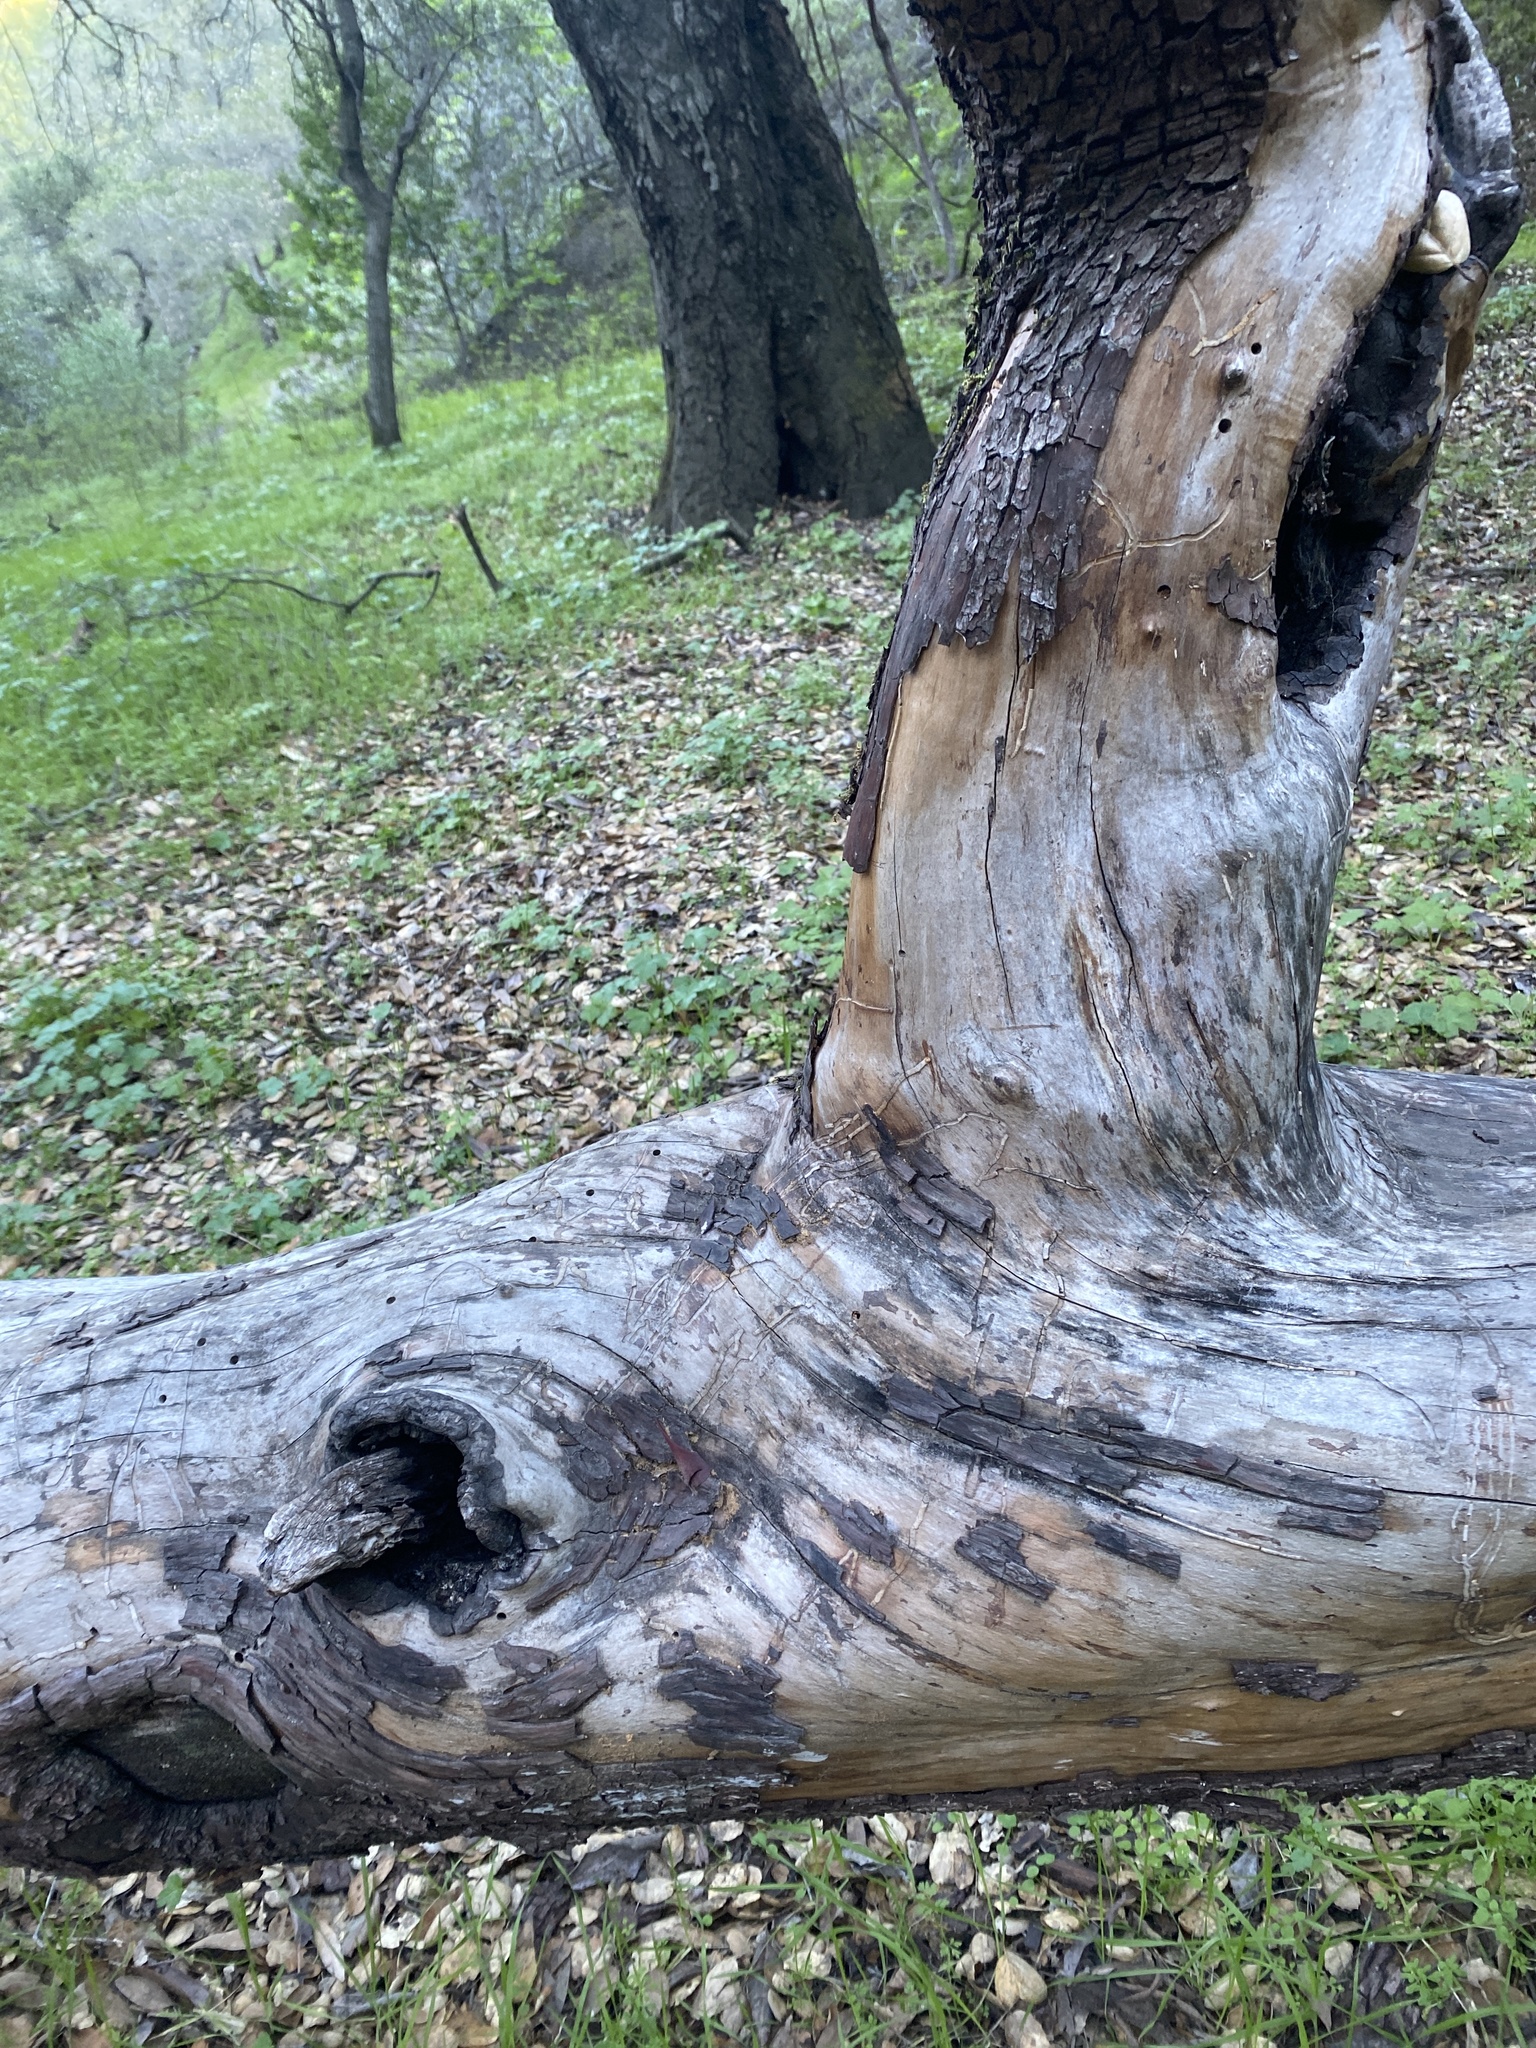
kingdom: Plantae
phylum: Tracheophyta
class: Magnoliopsida
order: Ericales
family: Ericaceae
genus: Arbutus
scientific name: Arbutus menziesii
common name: Pacific madrone
